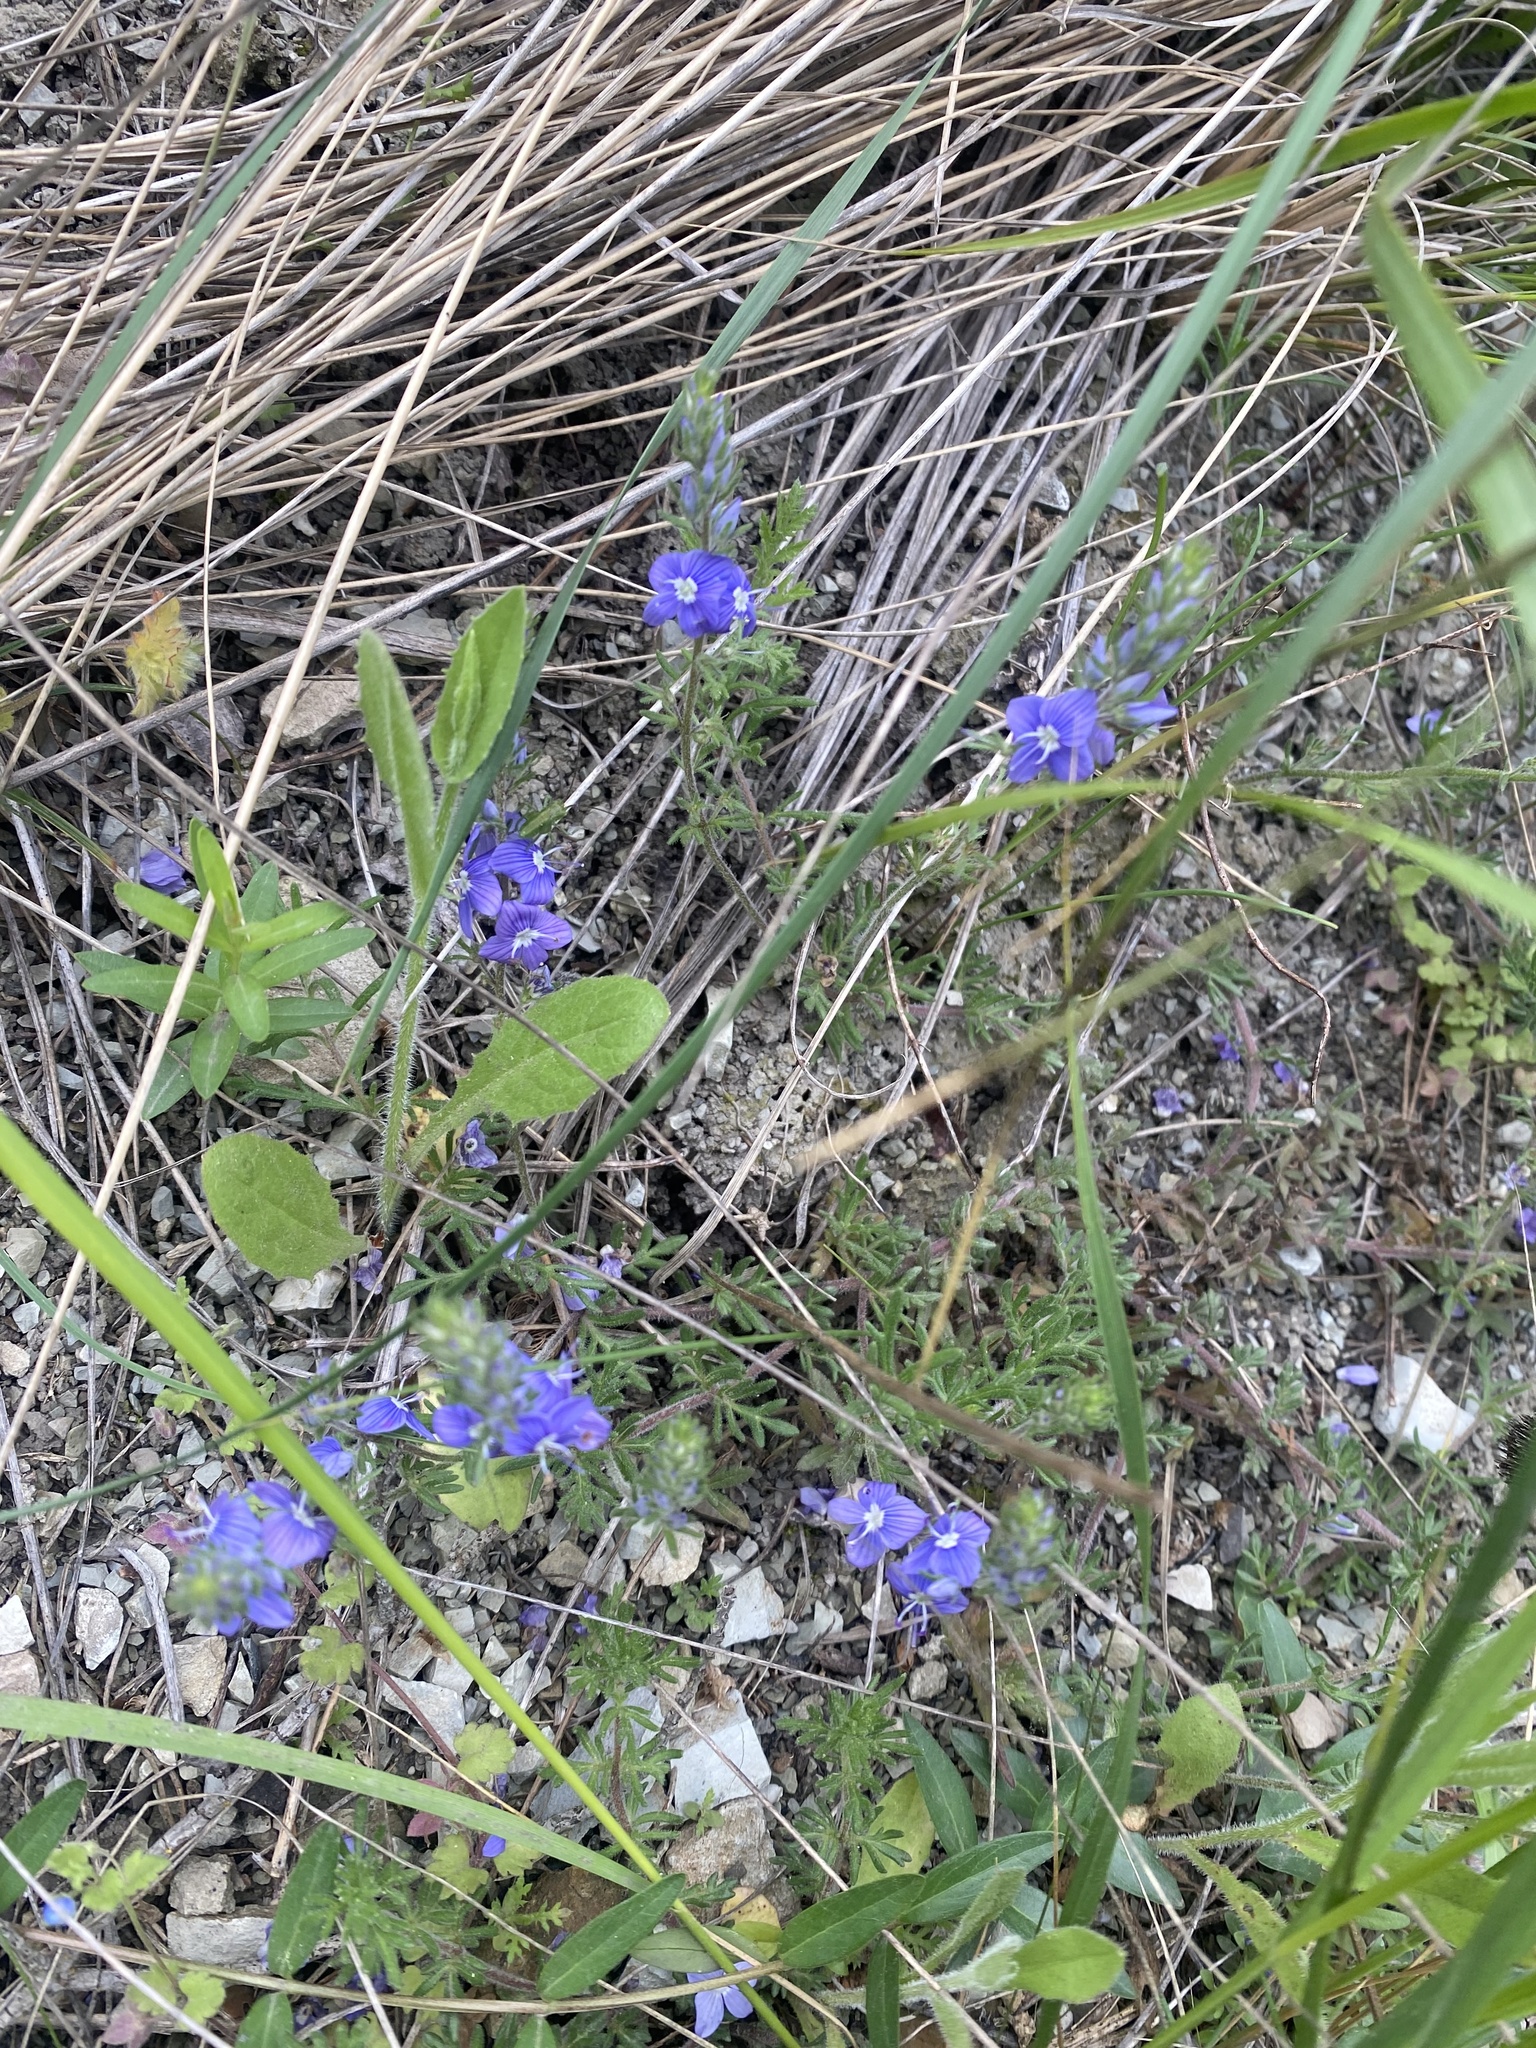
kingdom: Plantae
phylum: Tracheophyta
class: Magnoliopsida
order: Lamiales
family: Plantaginaceae
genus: Veronica
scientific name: Veronica capsellicarpa
